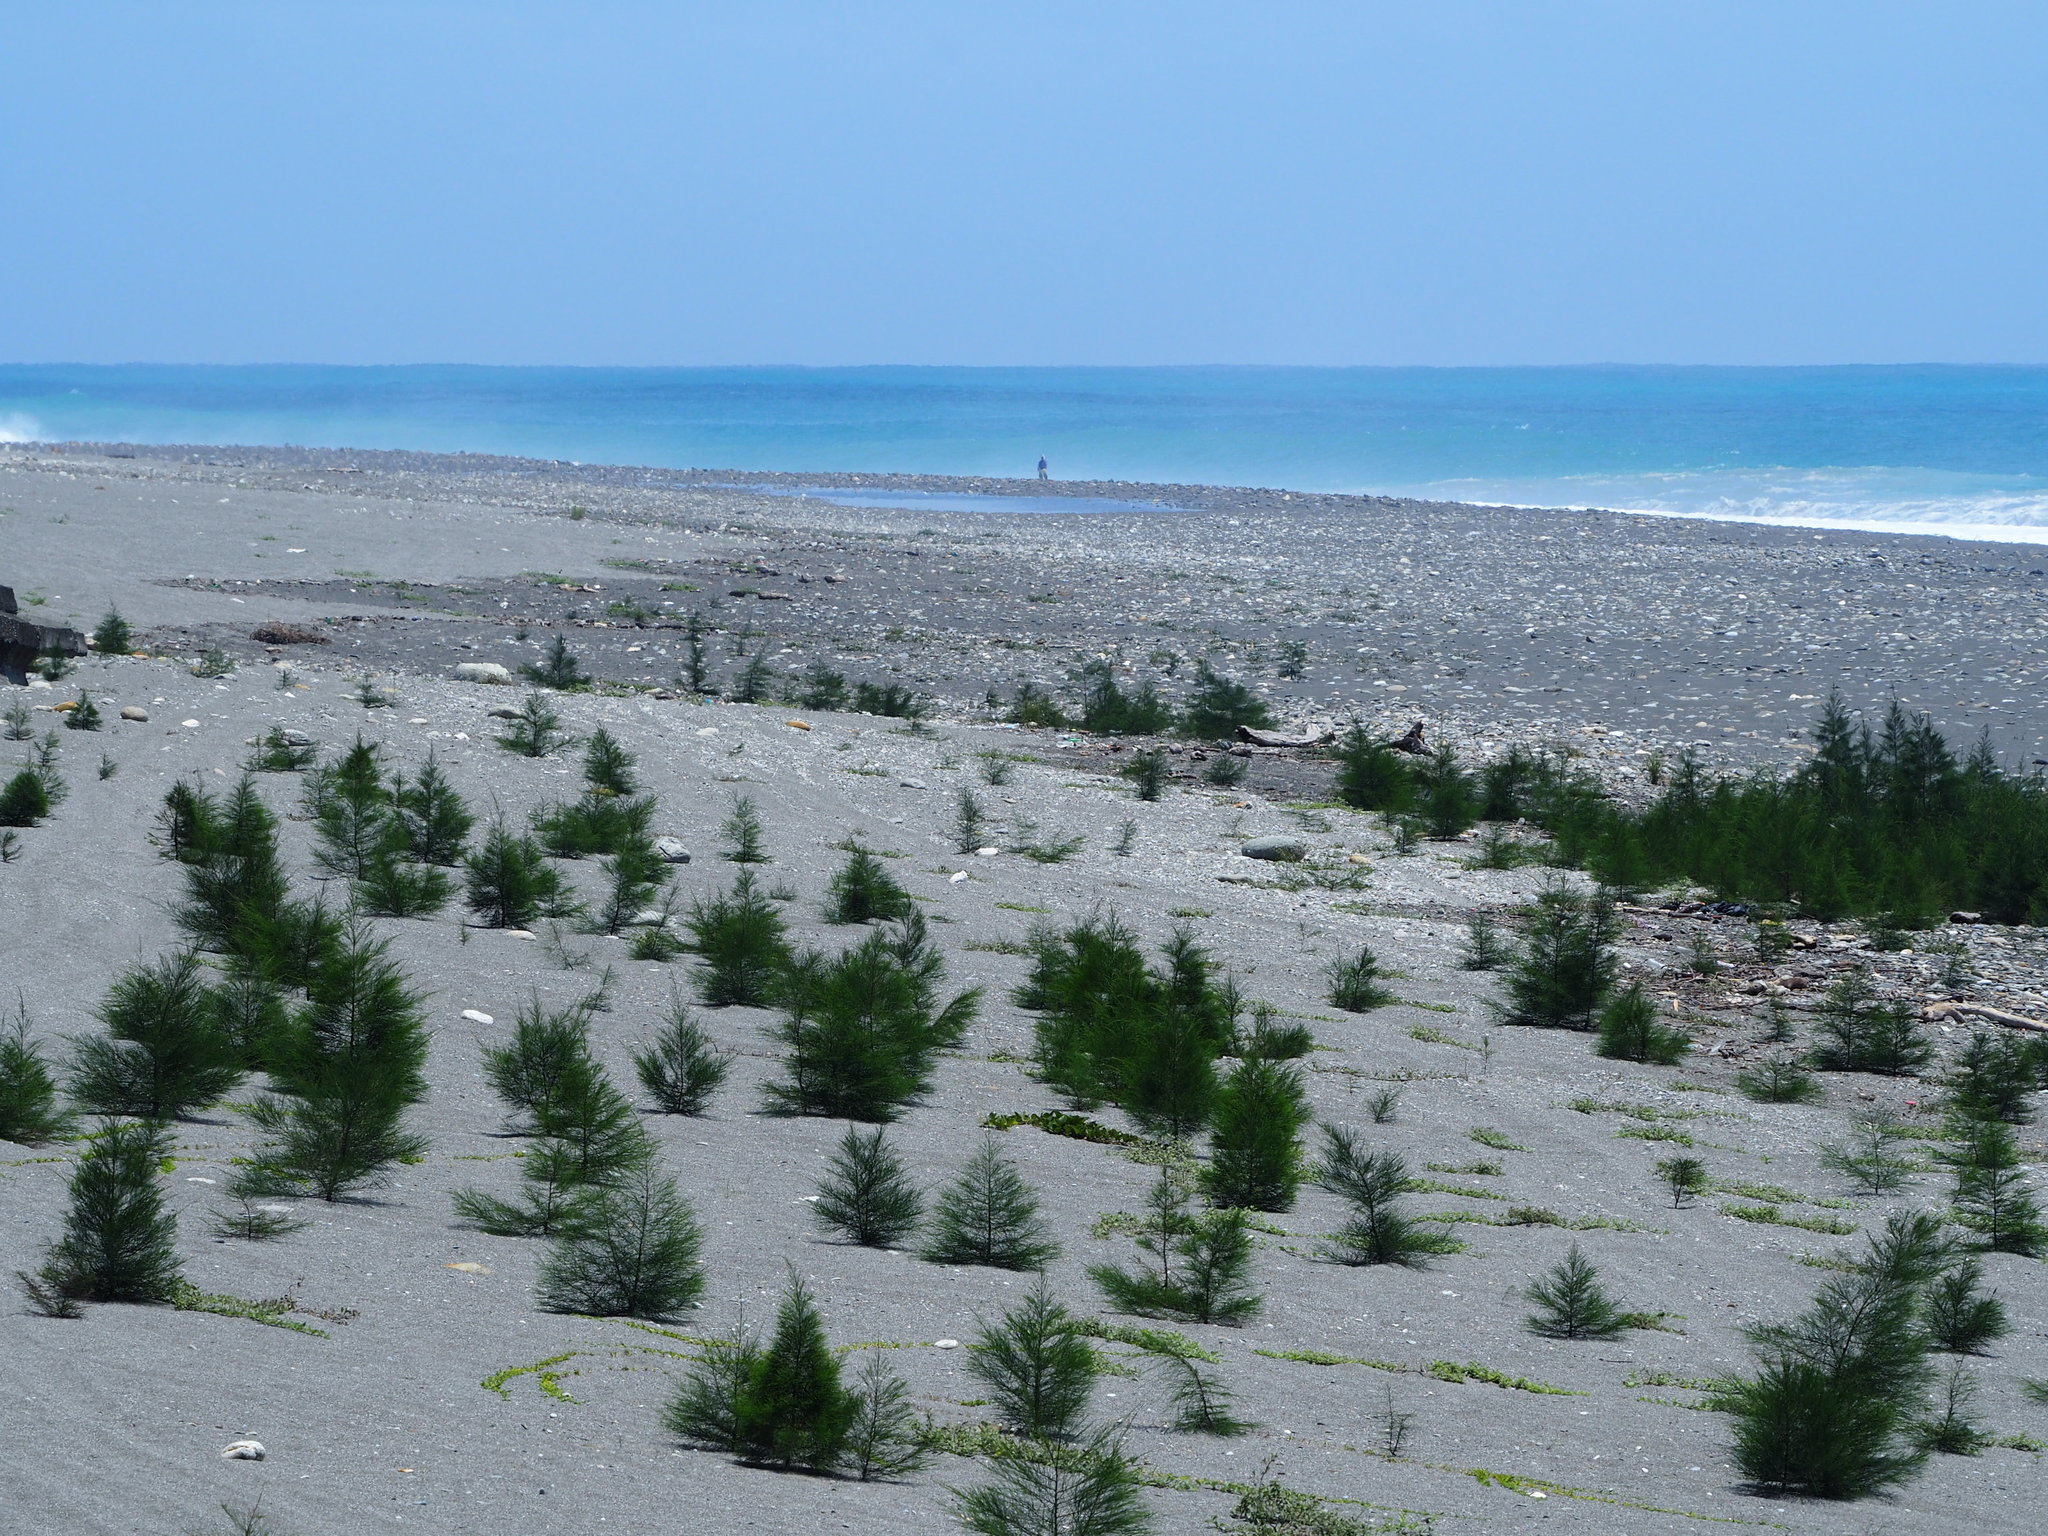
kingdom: Plantae
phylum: Tracheophyta
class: Magnoliopsida
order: Fagales
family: Casuarinaceae
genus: Casuarina
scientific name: Casuarina equisetifolia
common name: Beach sheoak
